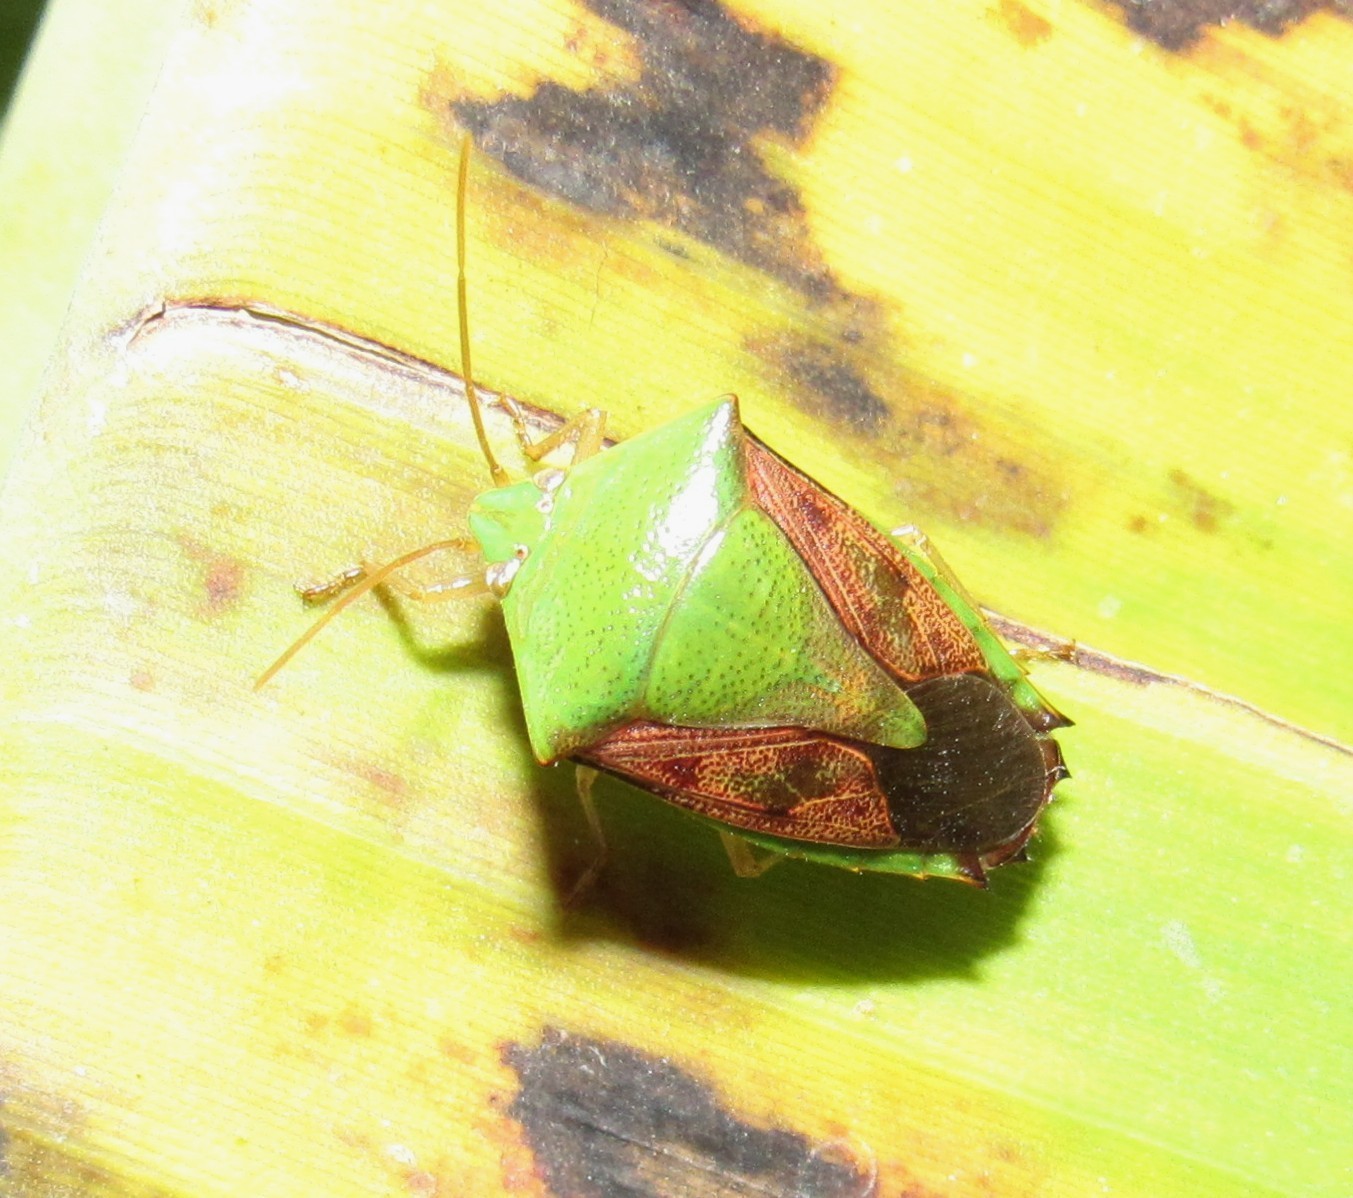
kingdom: Animalia
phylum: Arthropoda
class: Insecta
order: Hemiptera
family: Pentatomidae
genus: Hypoxys
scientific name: Hypoxys subrastratus
